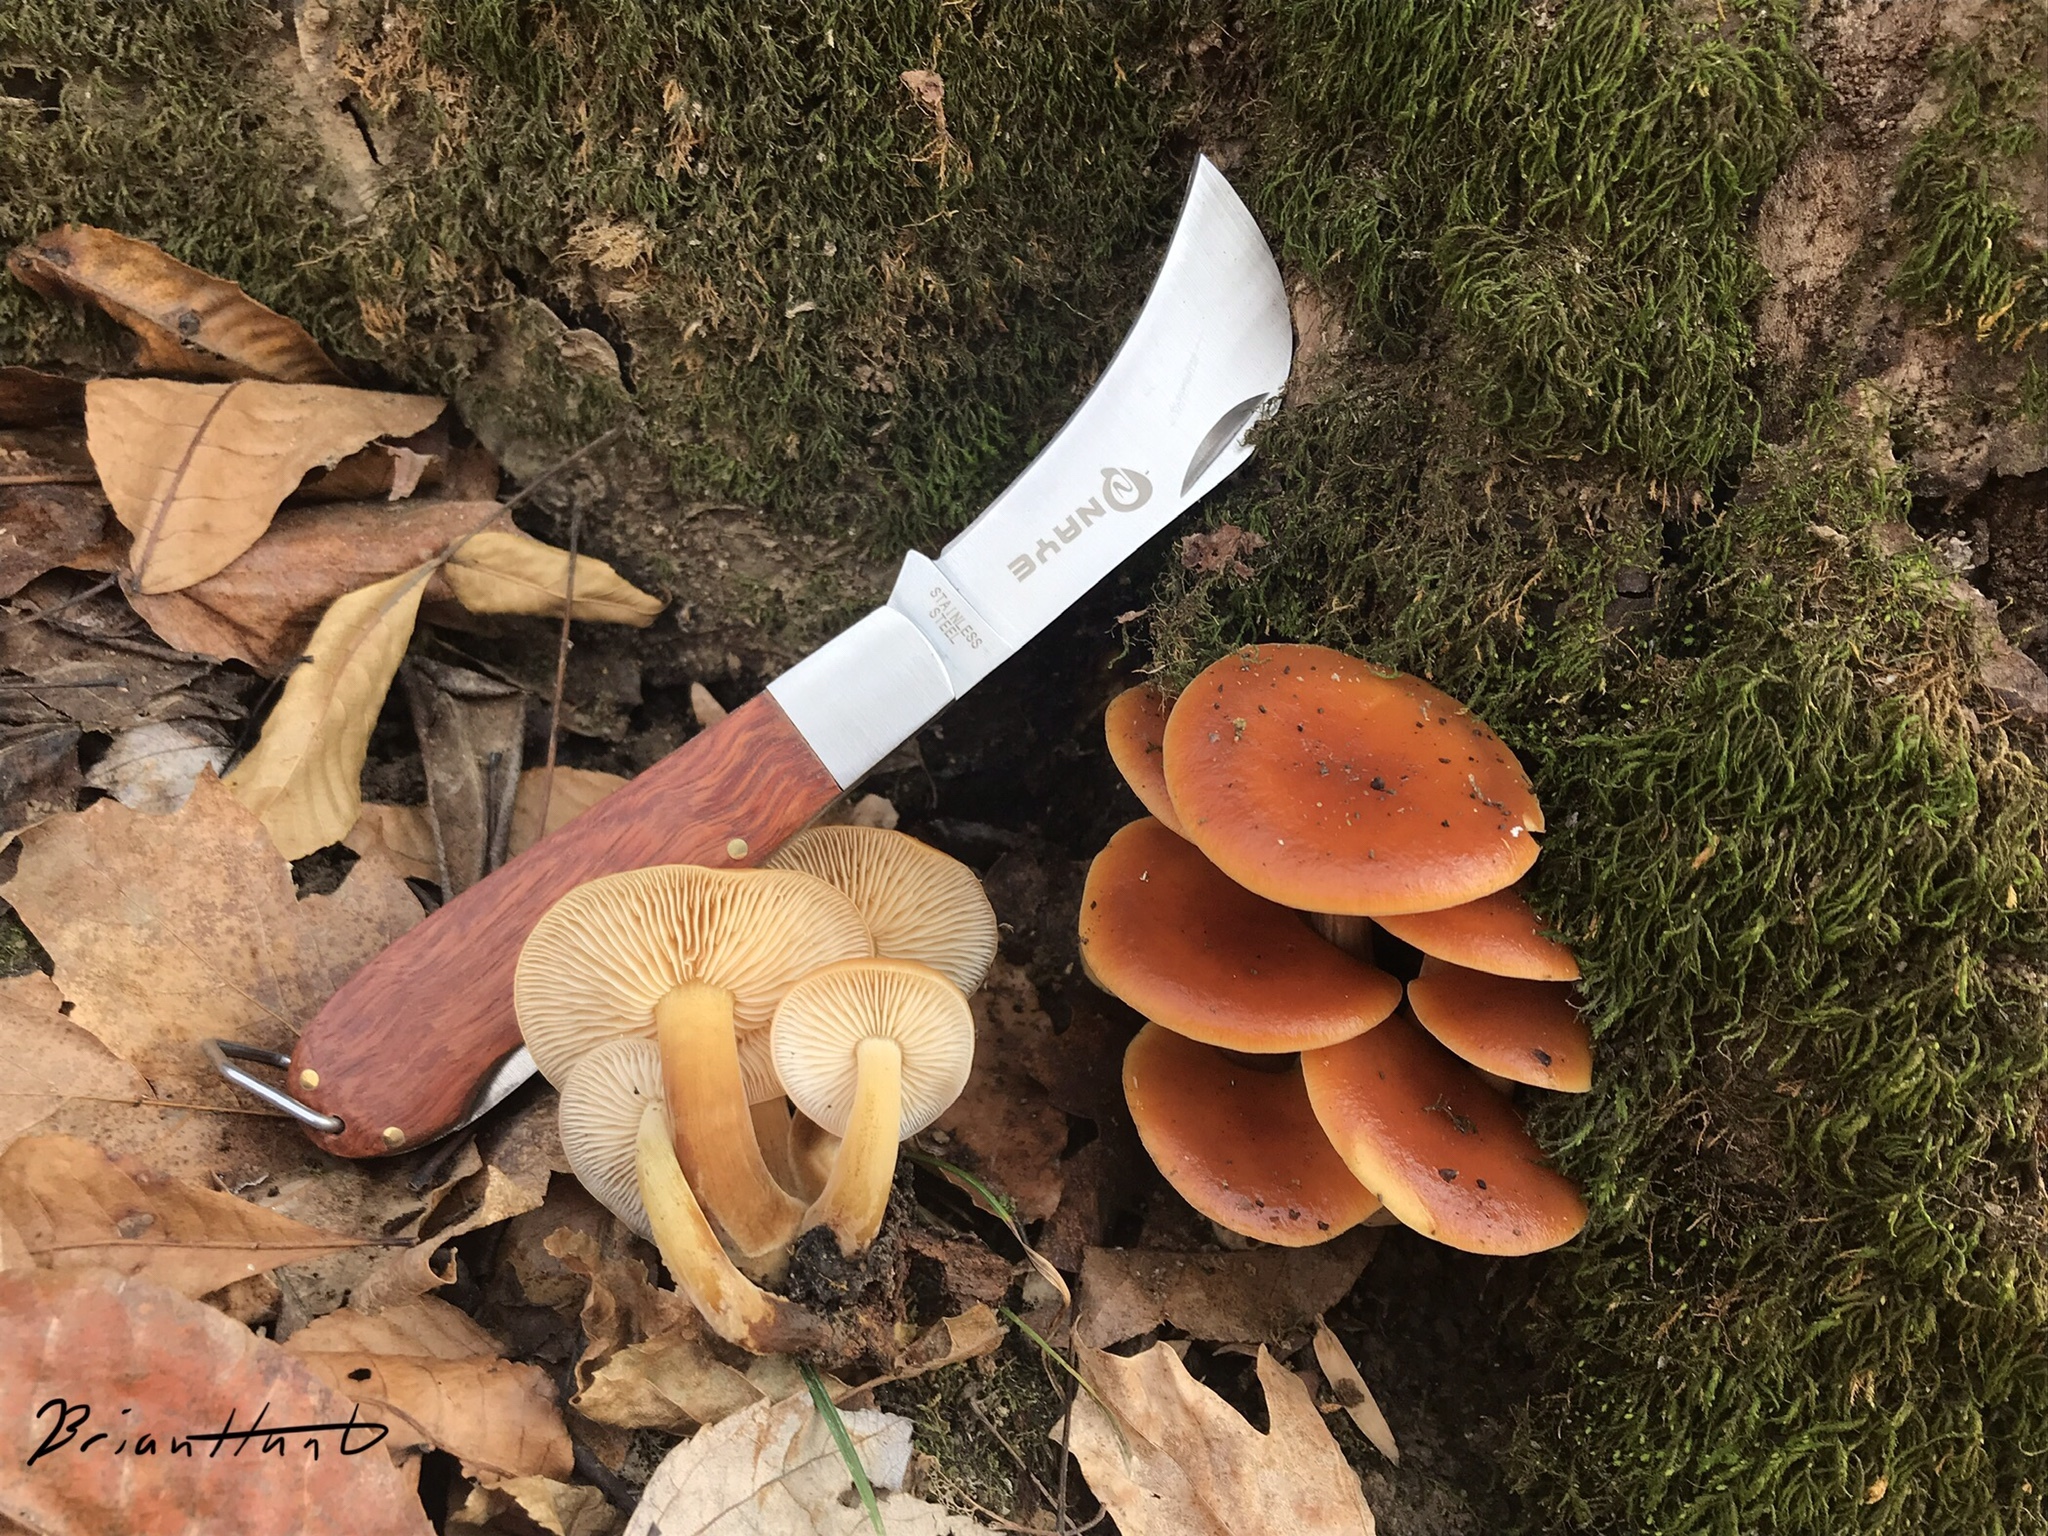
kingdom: Fungi
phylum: Basidiomycota
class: Agaricomycetes
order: Agaricales
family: Physalacriaceae
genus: Flammulina
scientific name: Flammulina velutipes
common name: Velvet shank
